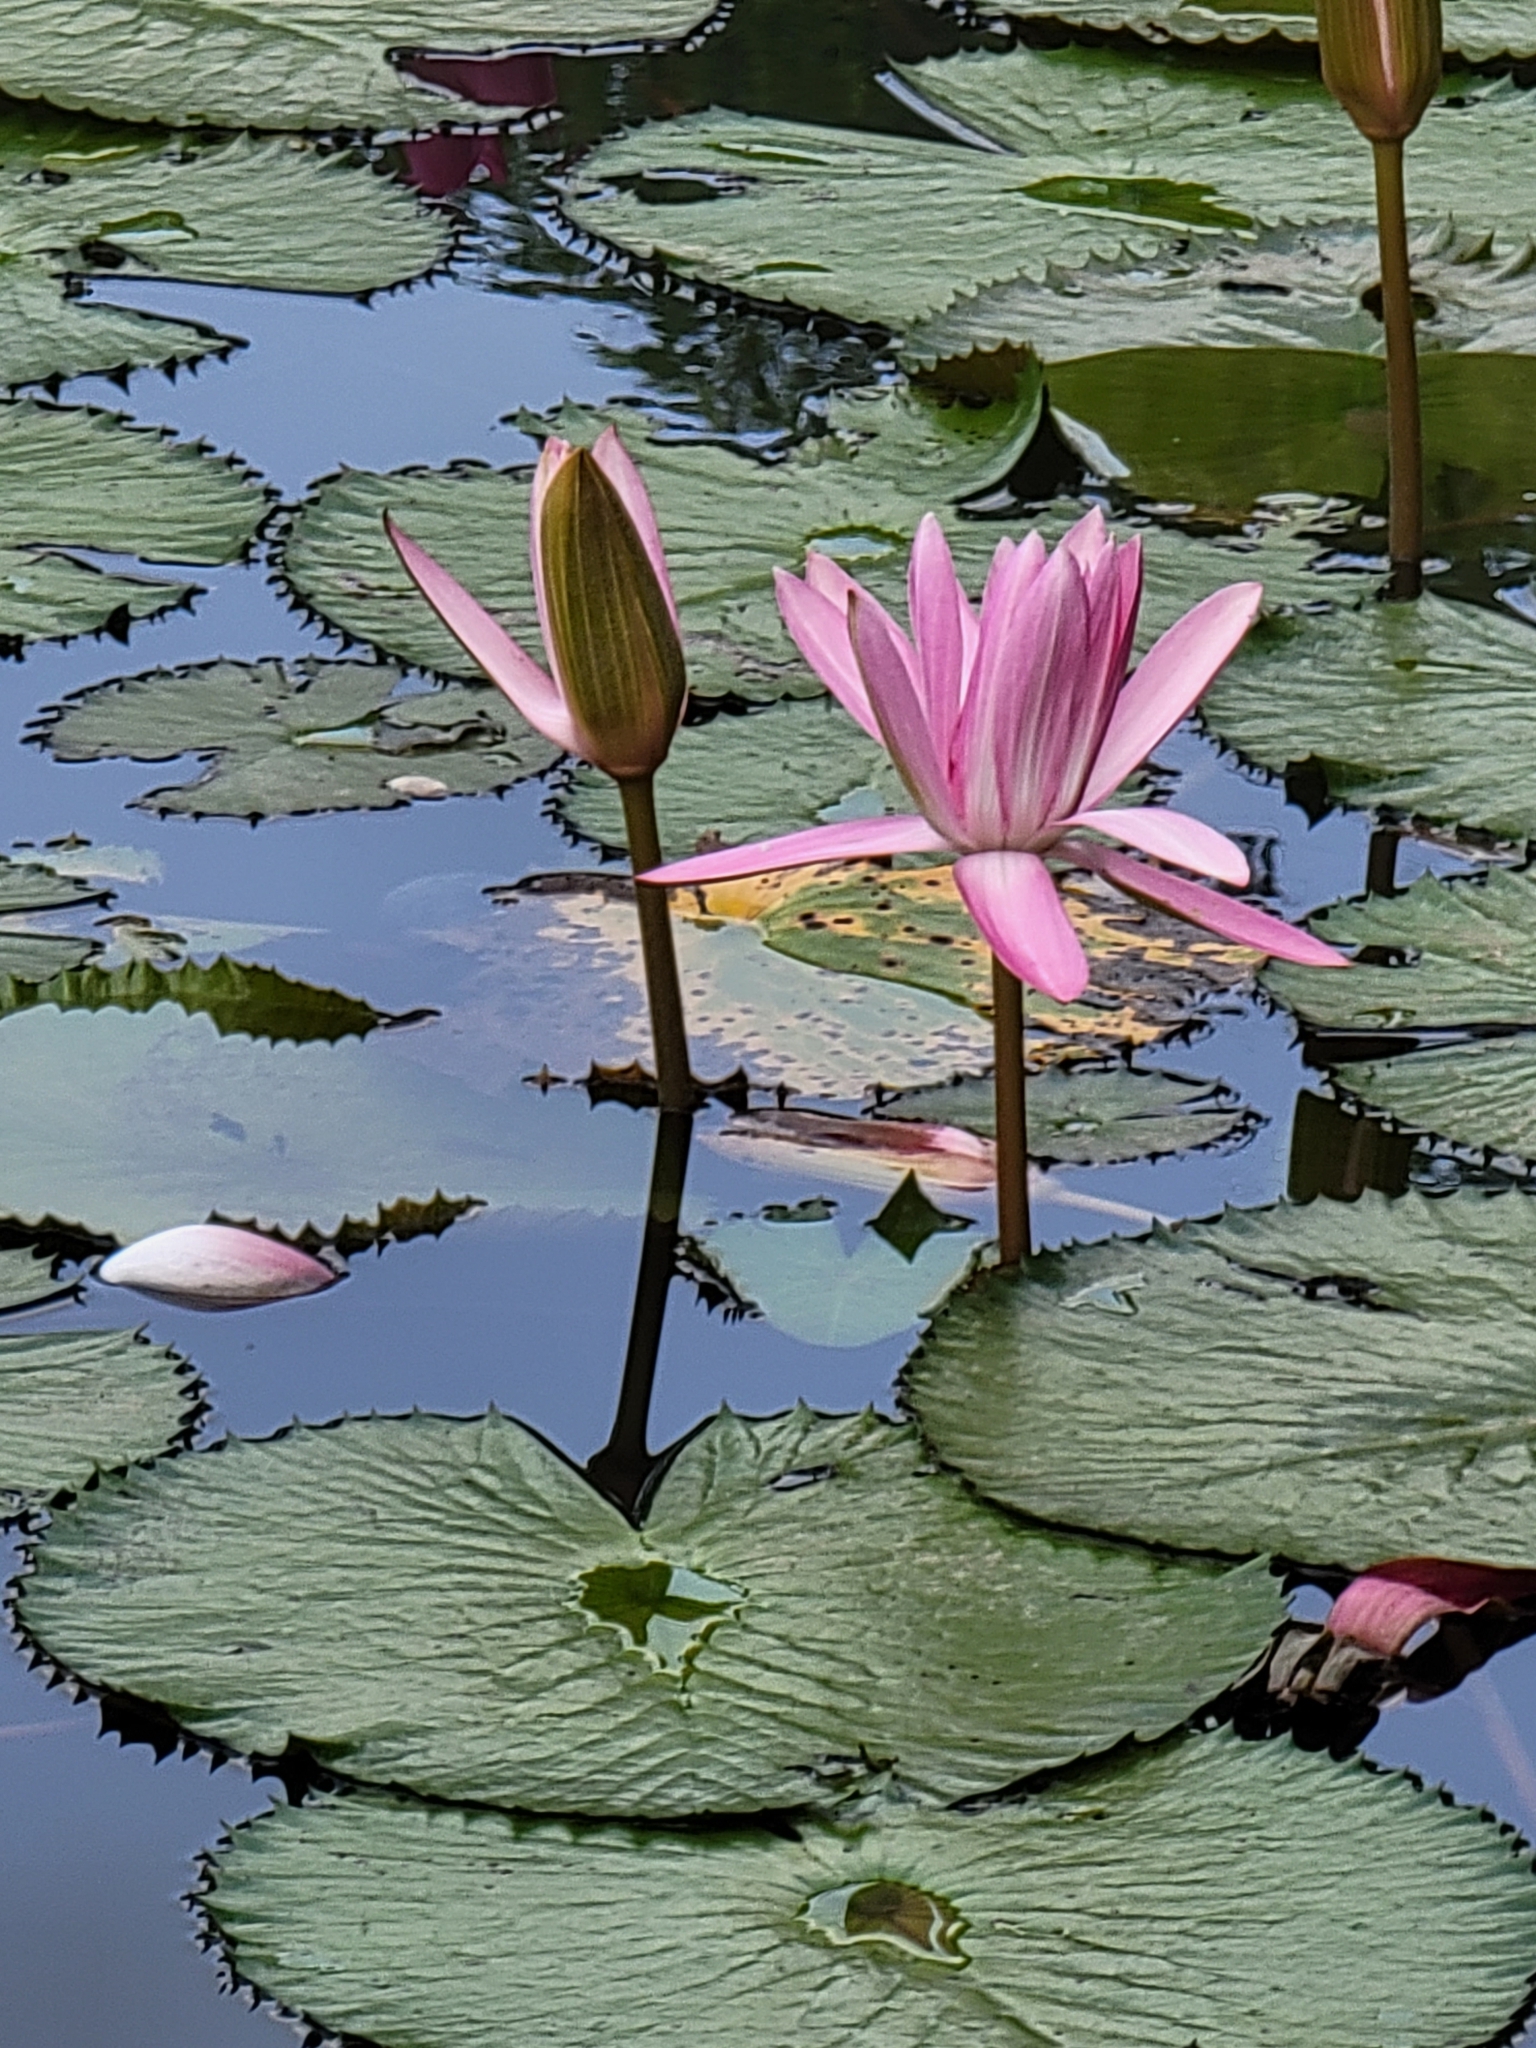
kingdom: Plantae
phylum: Tracheophyta
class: Magnoliopsida
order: Nymphaeales
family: Nymphaeaceae
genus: Nymphaea
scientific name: Nymphaea rubra
